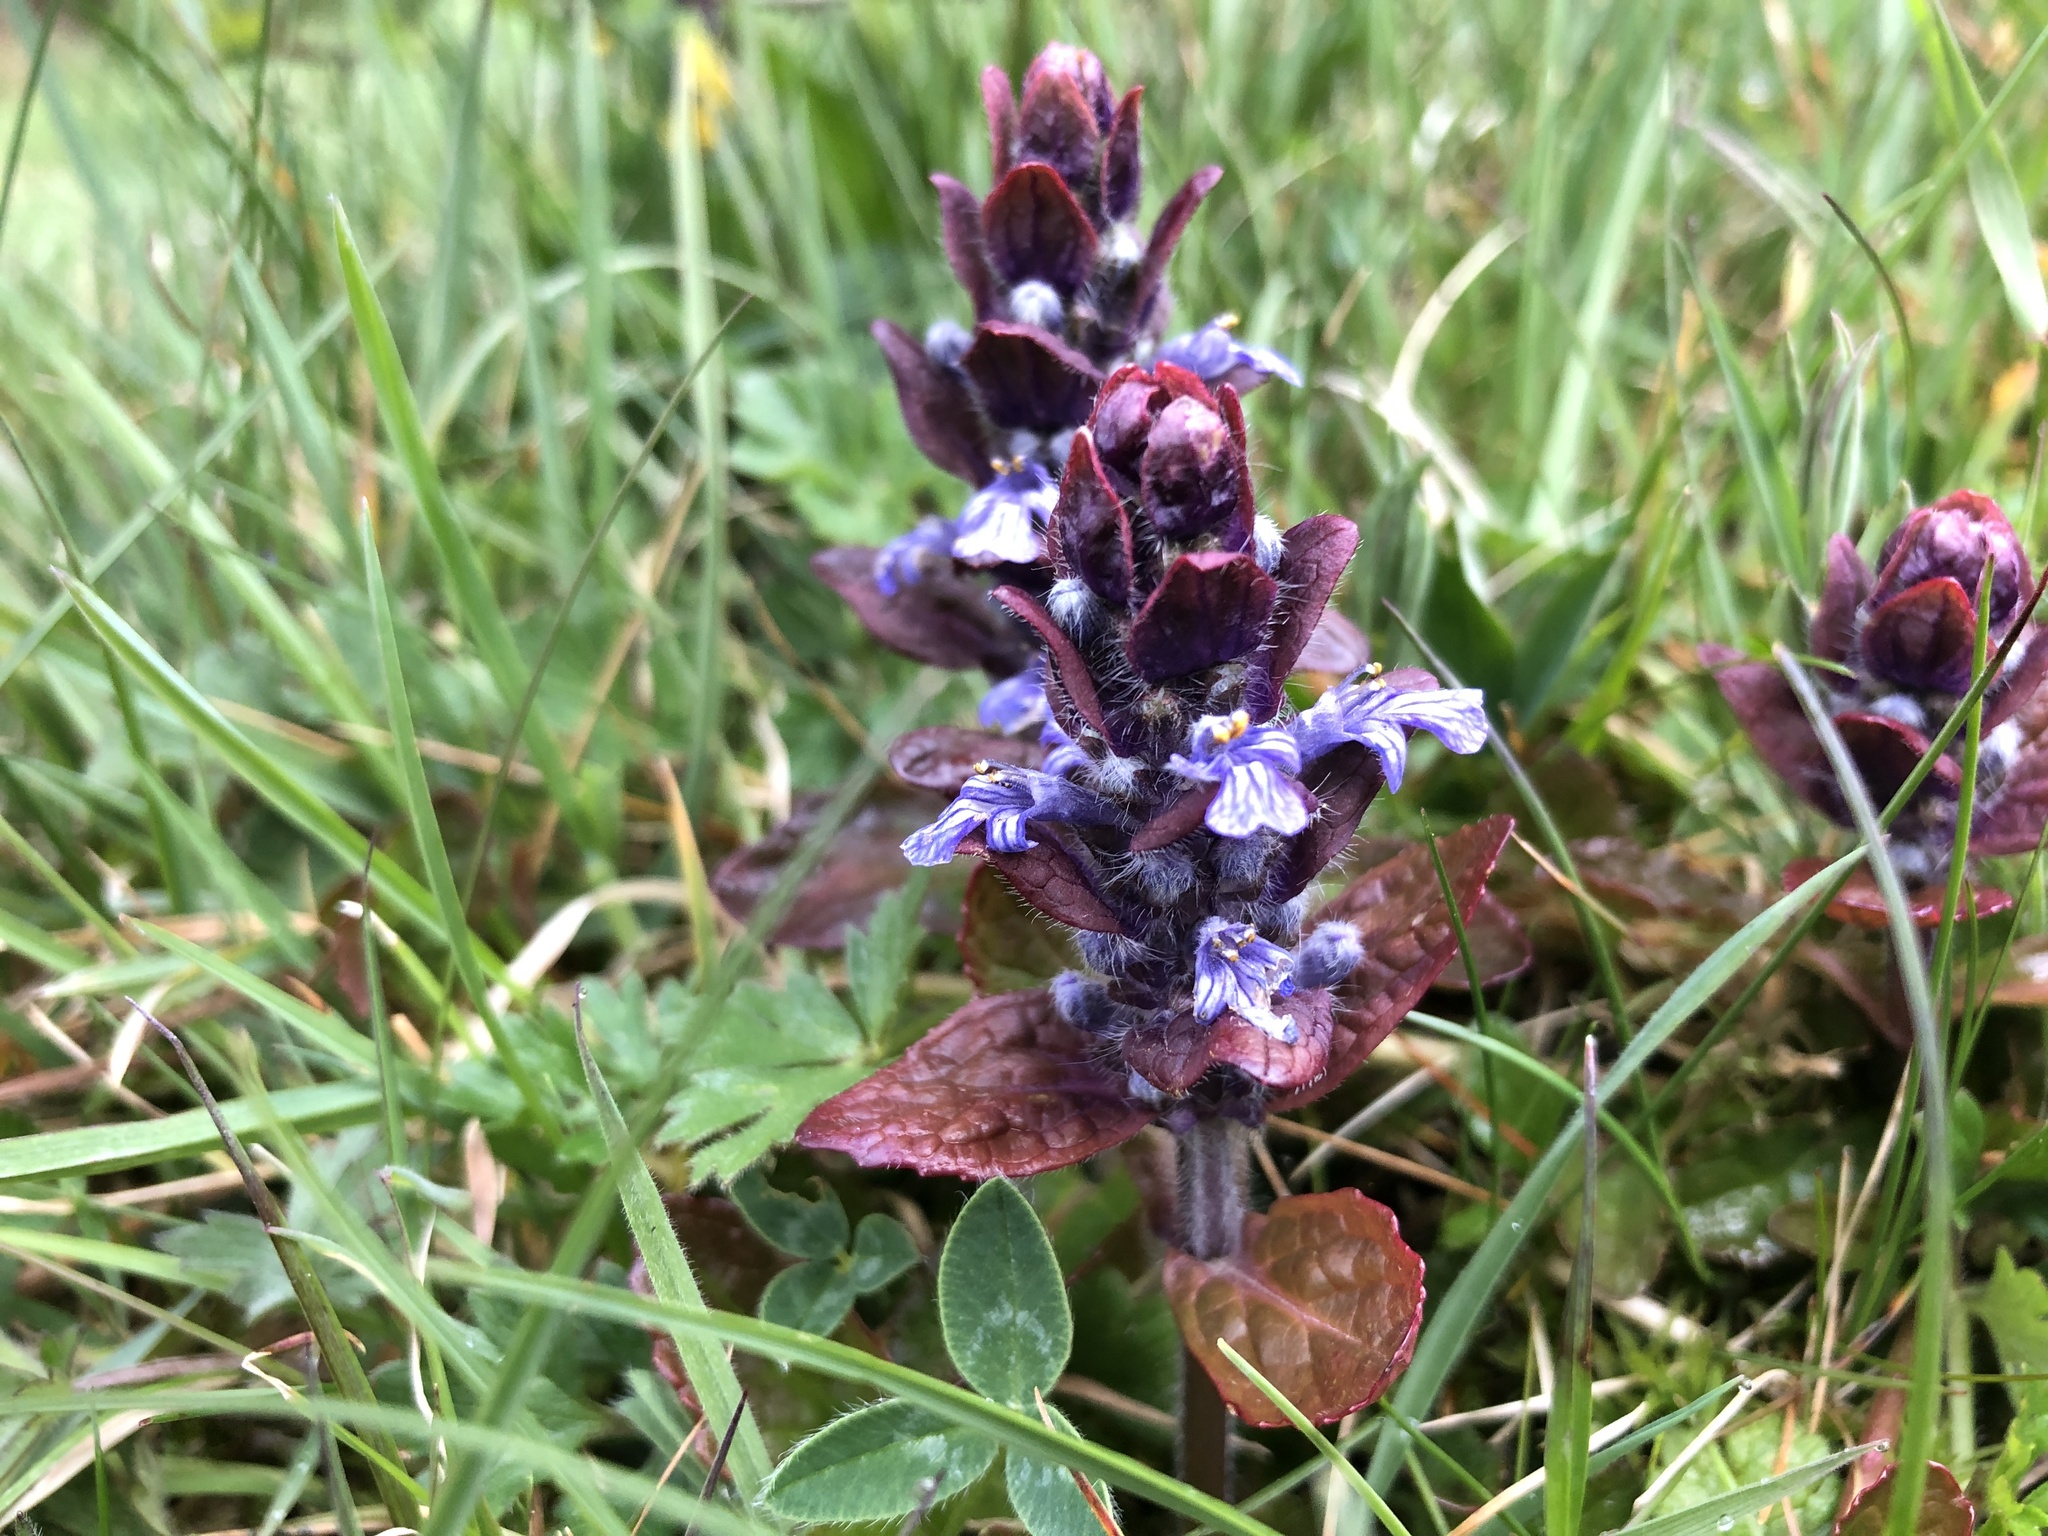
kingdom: Plantae
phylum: Tracheophyta
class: Magnoliopsida
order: Lamiales
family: Lamiaceae
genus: Ajuga
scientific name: Ajuga reptans
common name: Bugle
